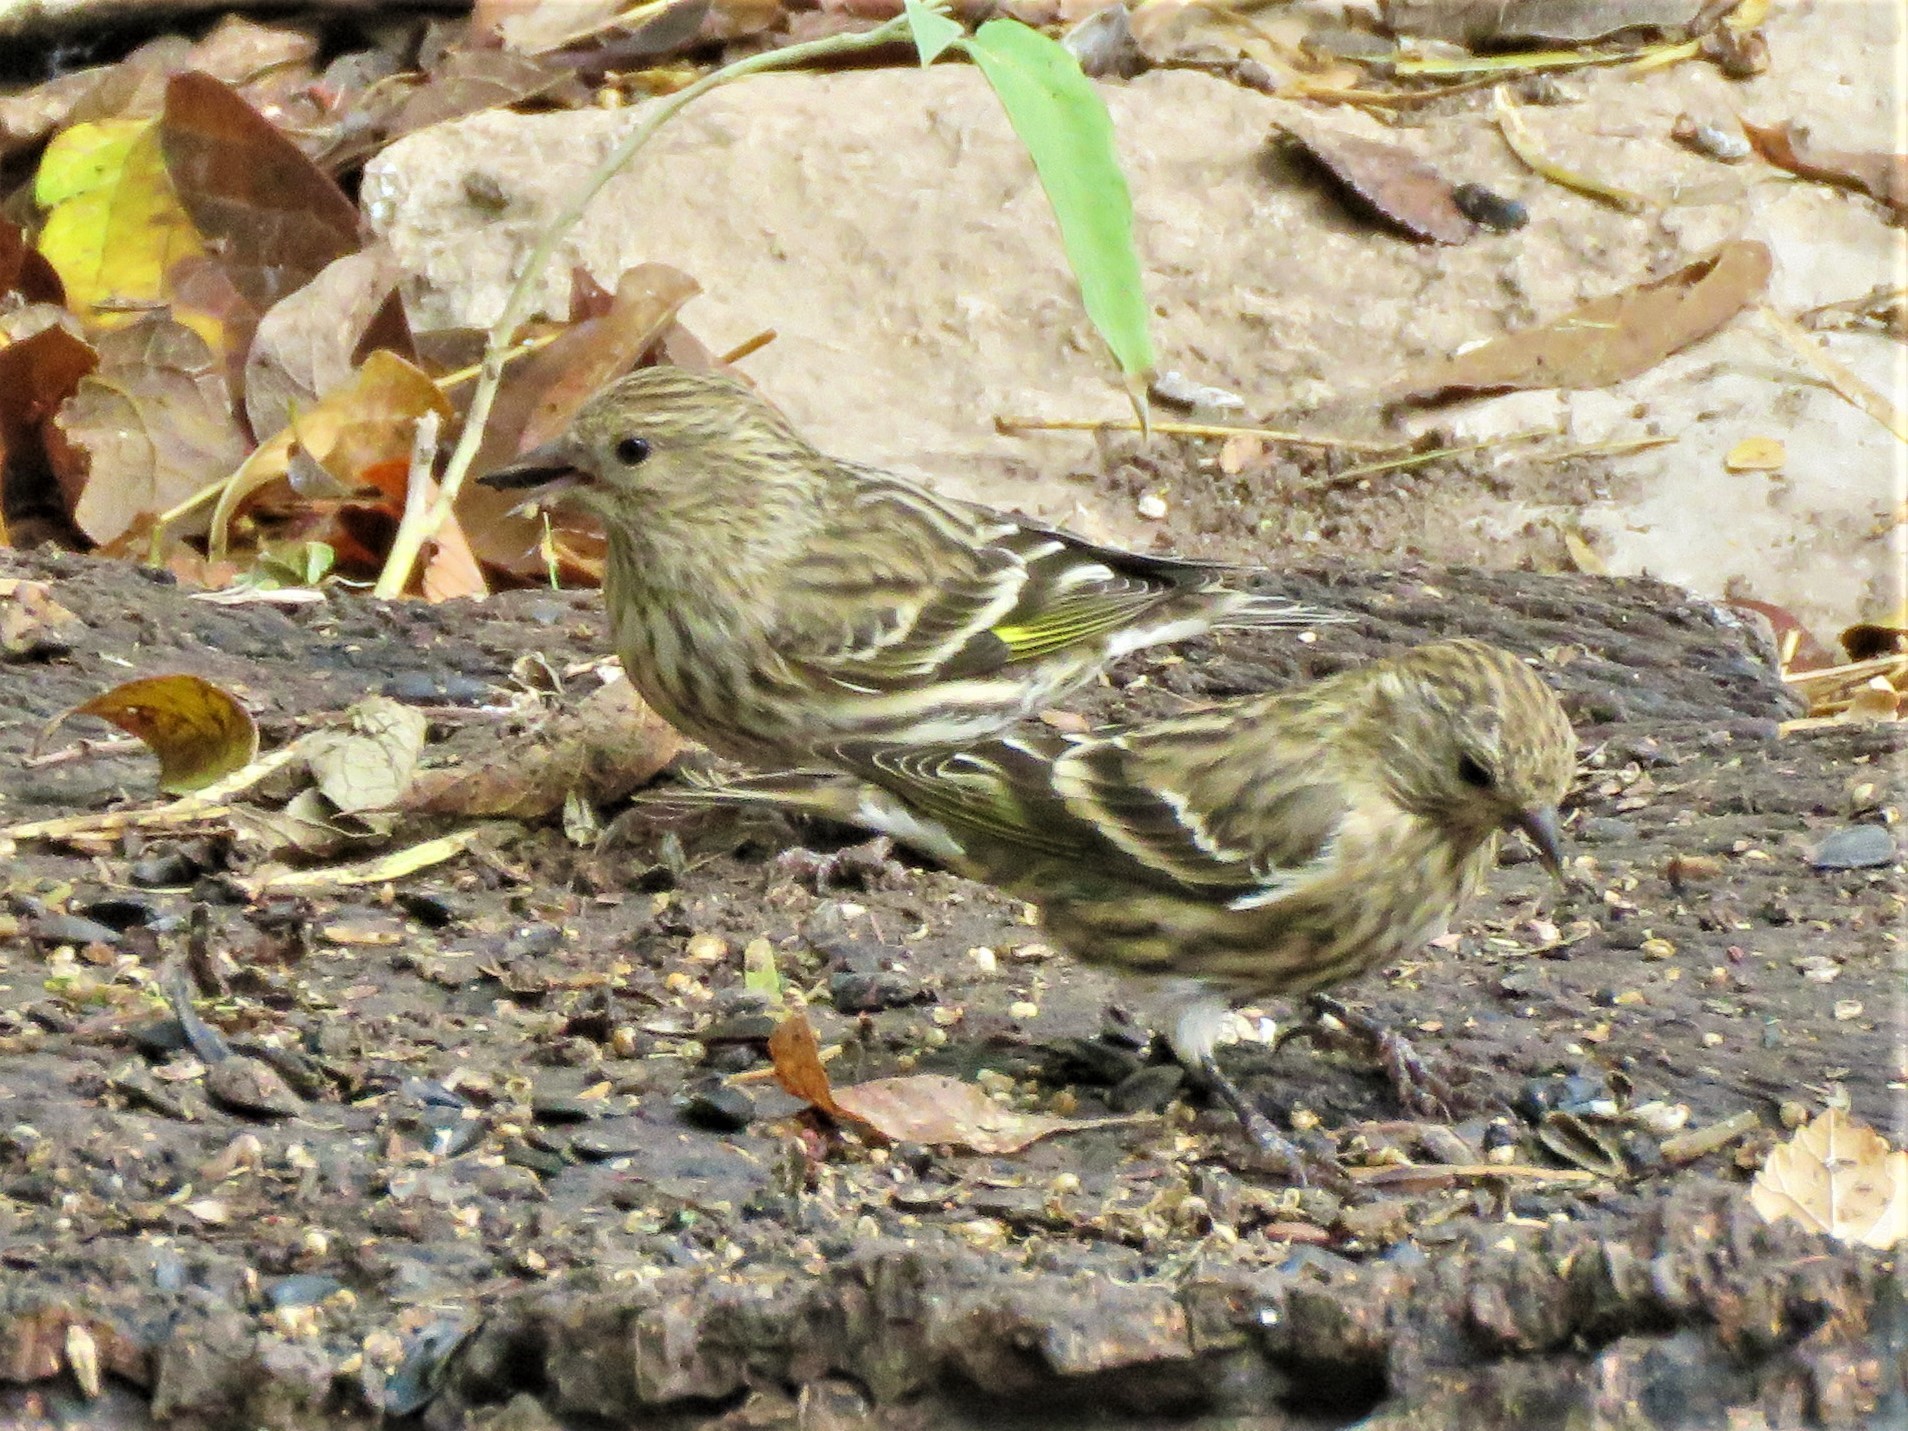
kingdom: Animalia
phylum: Chordata
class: Aves
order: Passeriformes
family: Fringillidae
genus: Spinus
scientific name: Spinus pinus
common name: Pine siskin
